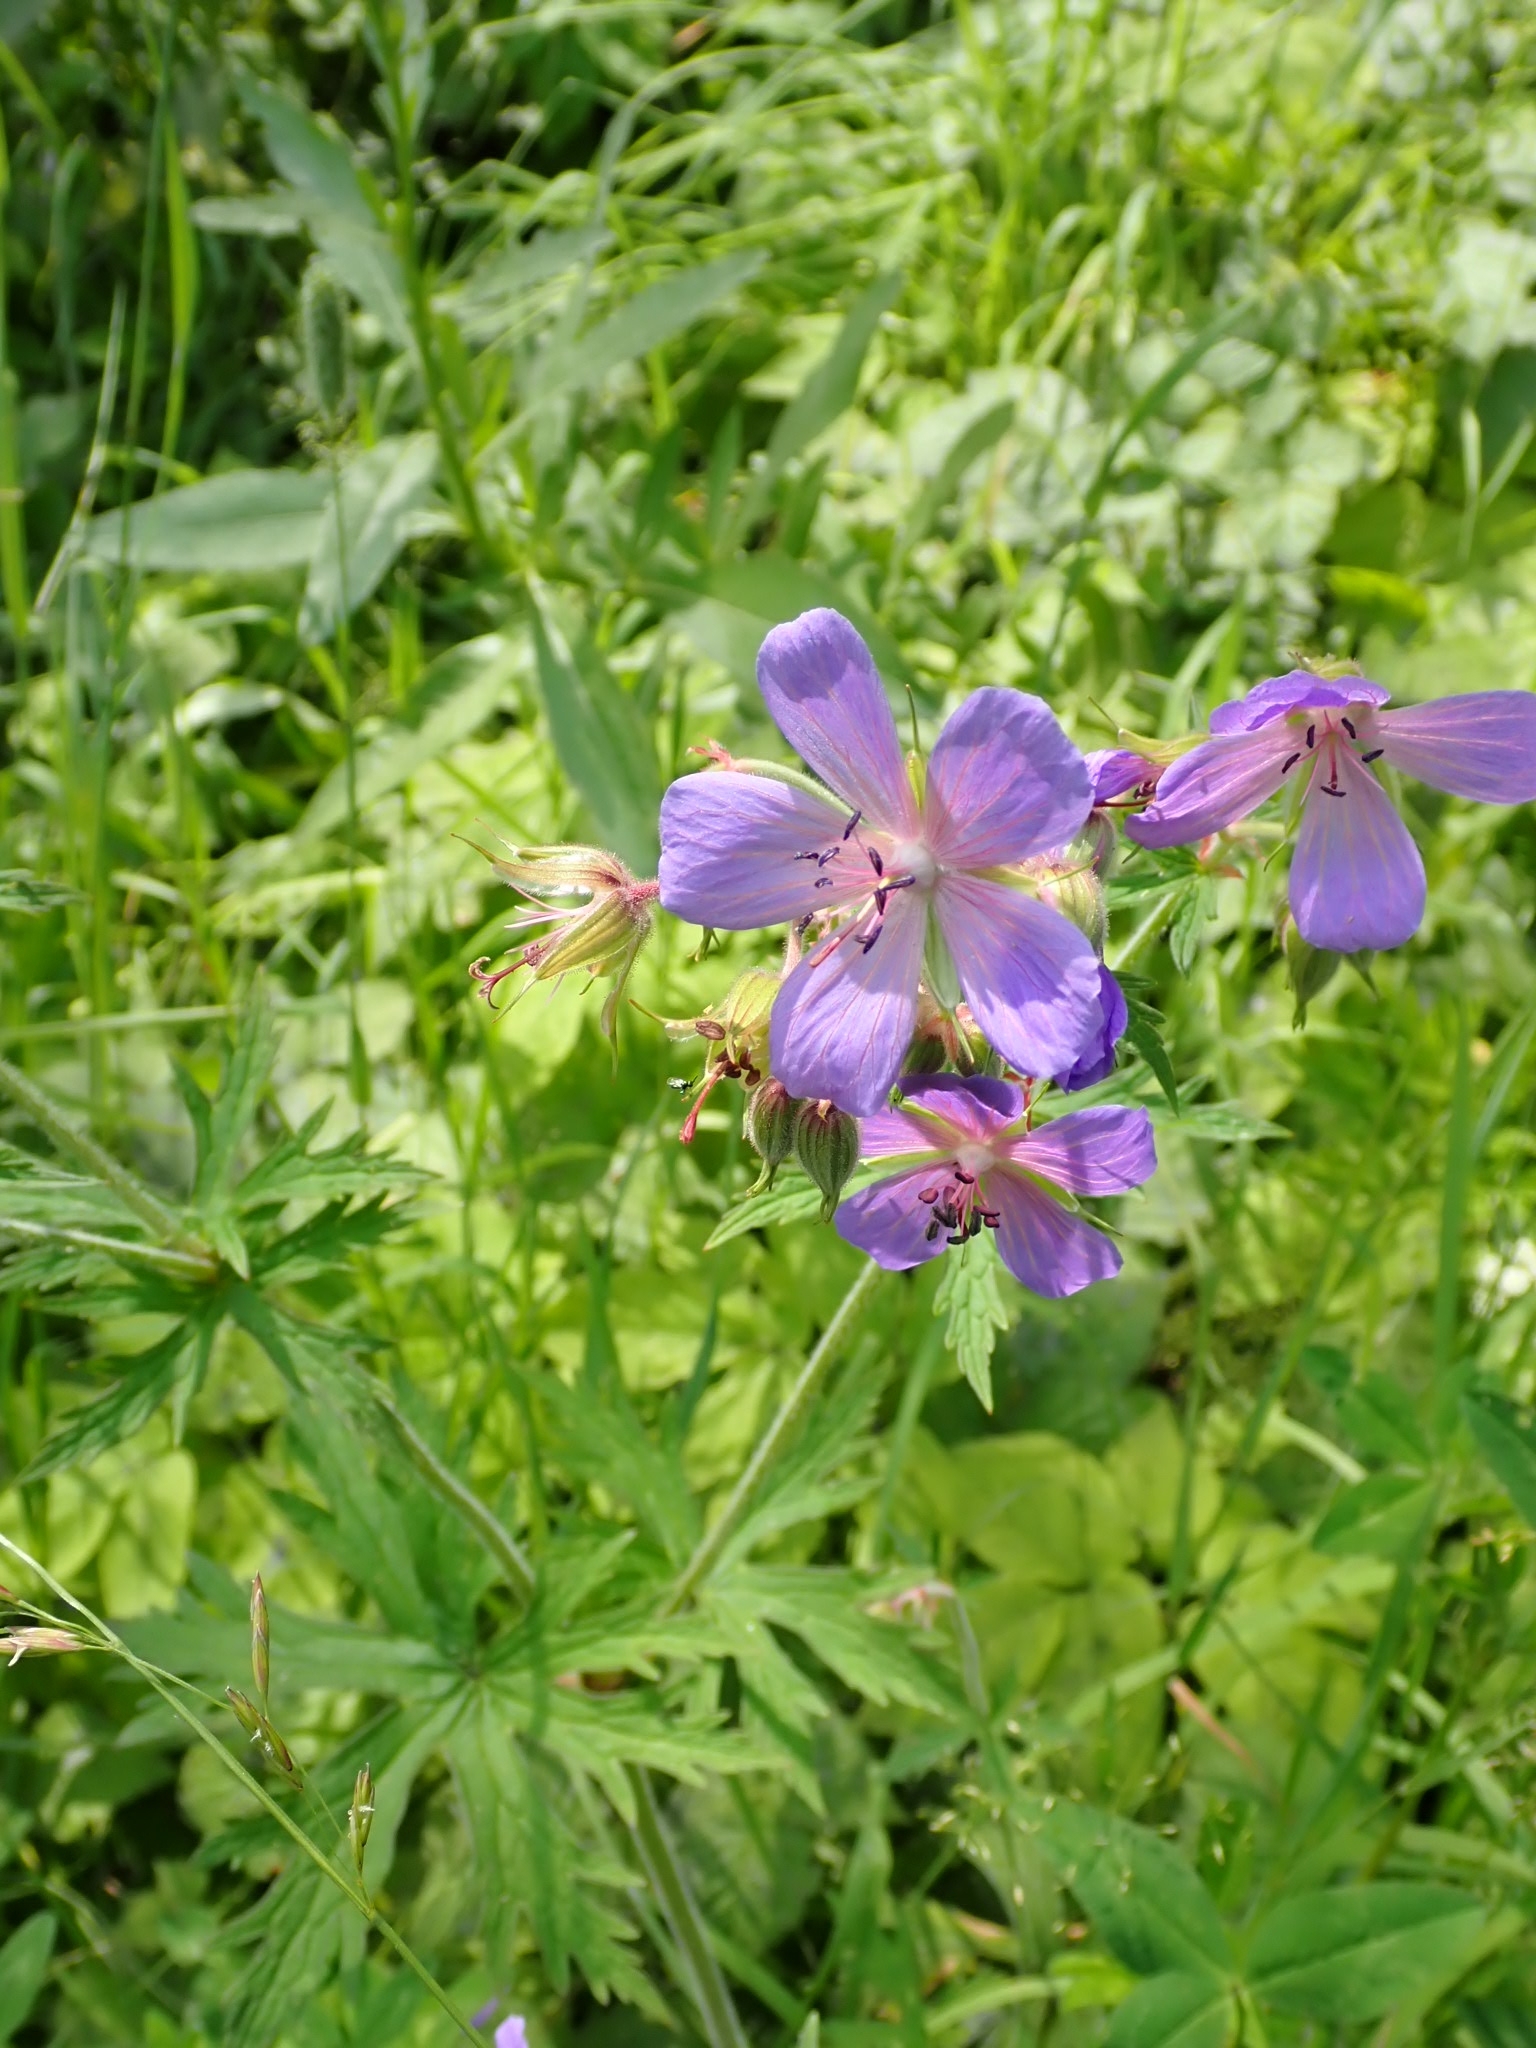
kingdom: Plantae
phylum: Tracheophyta
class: Magnoliopsida
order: Geraniales
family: Geraniaceae
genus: Geranium
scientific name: Geranium pratense
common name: Meadow crane's-bill
